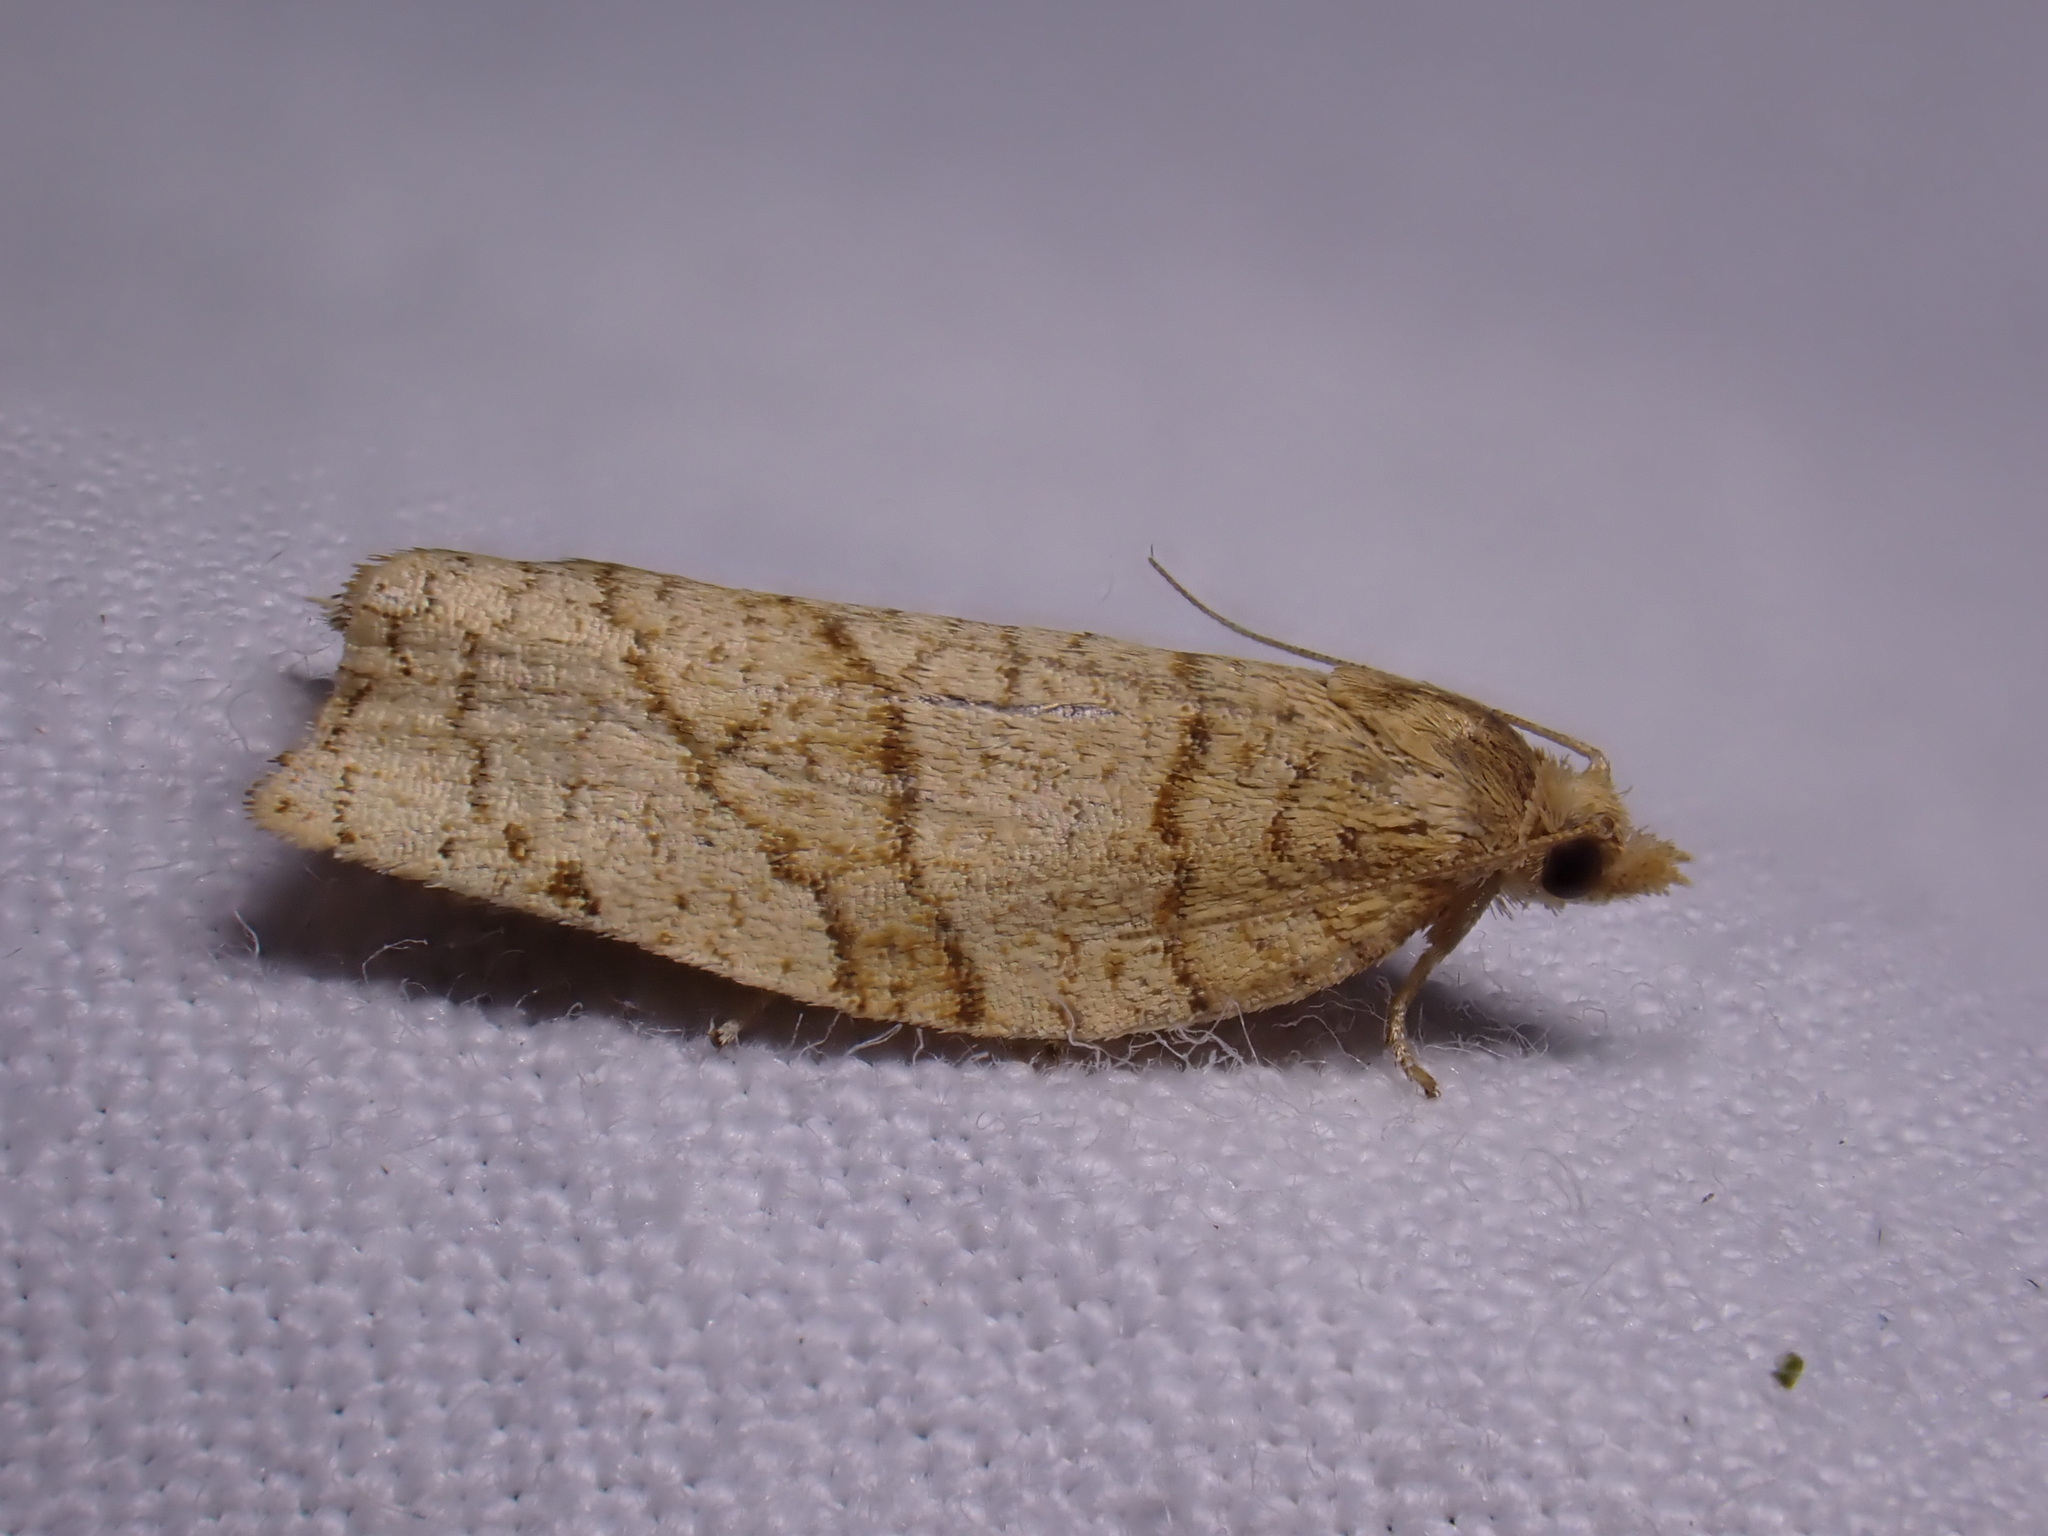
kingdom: Animalia
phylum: Arthropoda
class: Insecta
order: Lepidoptera
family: Tortricidae
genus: Pandemis
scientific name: Pandemis corylana
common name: Chequered fruit-tree tortrix
